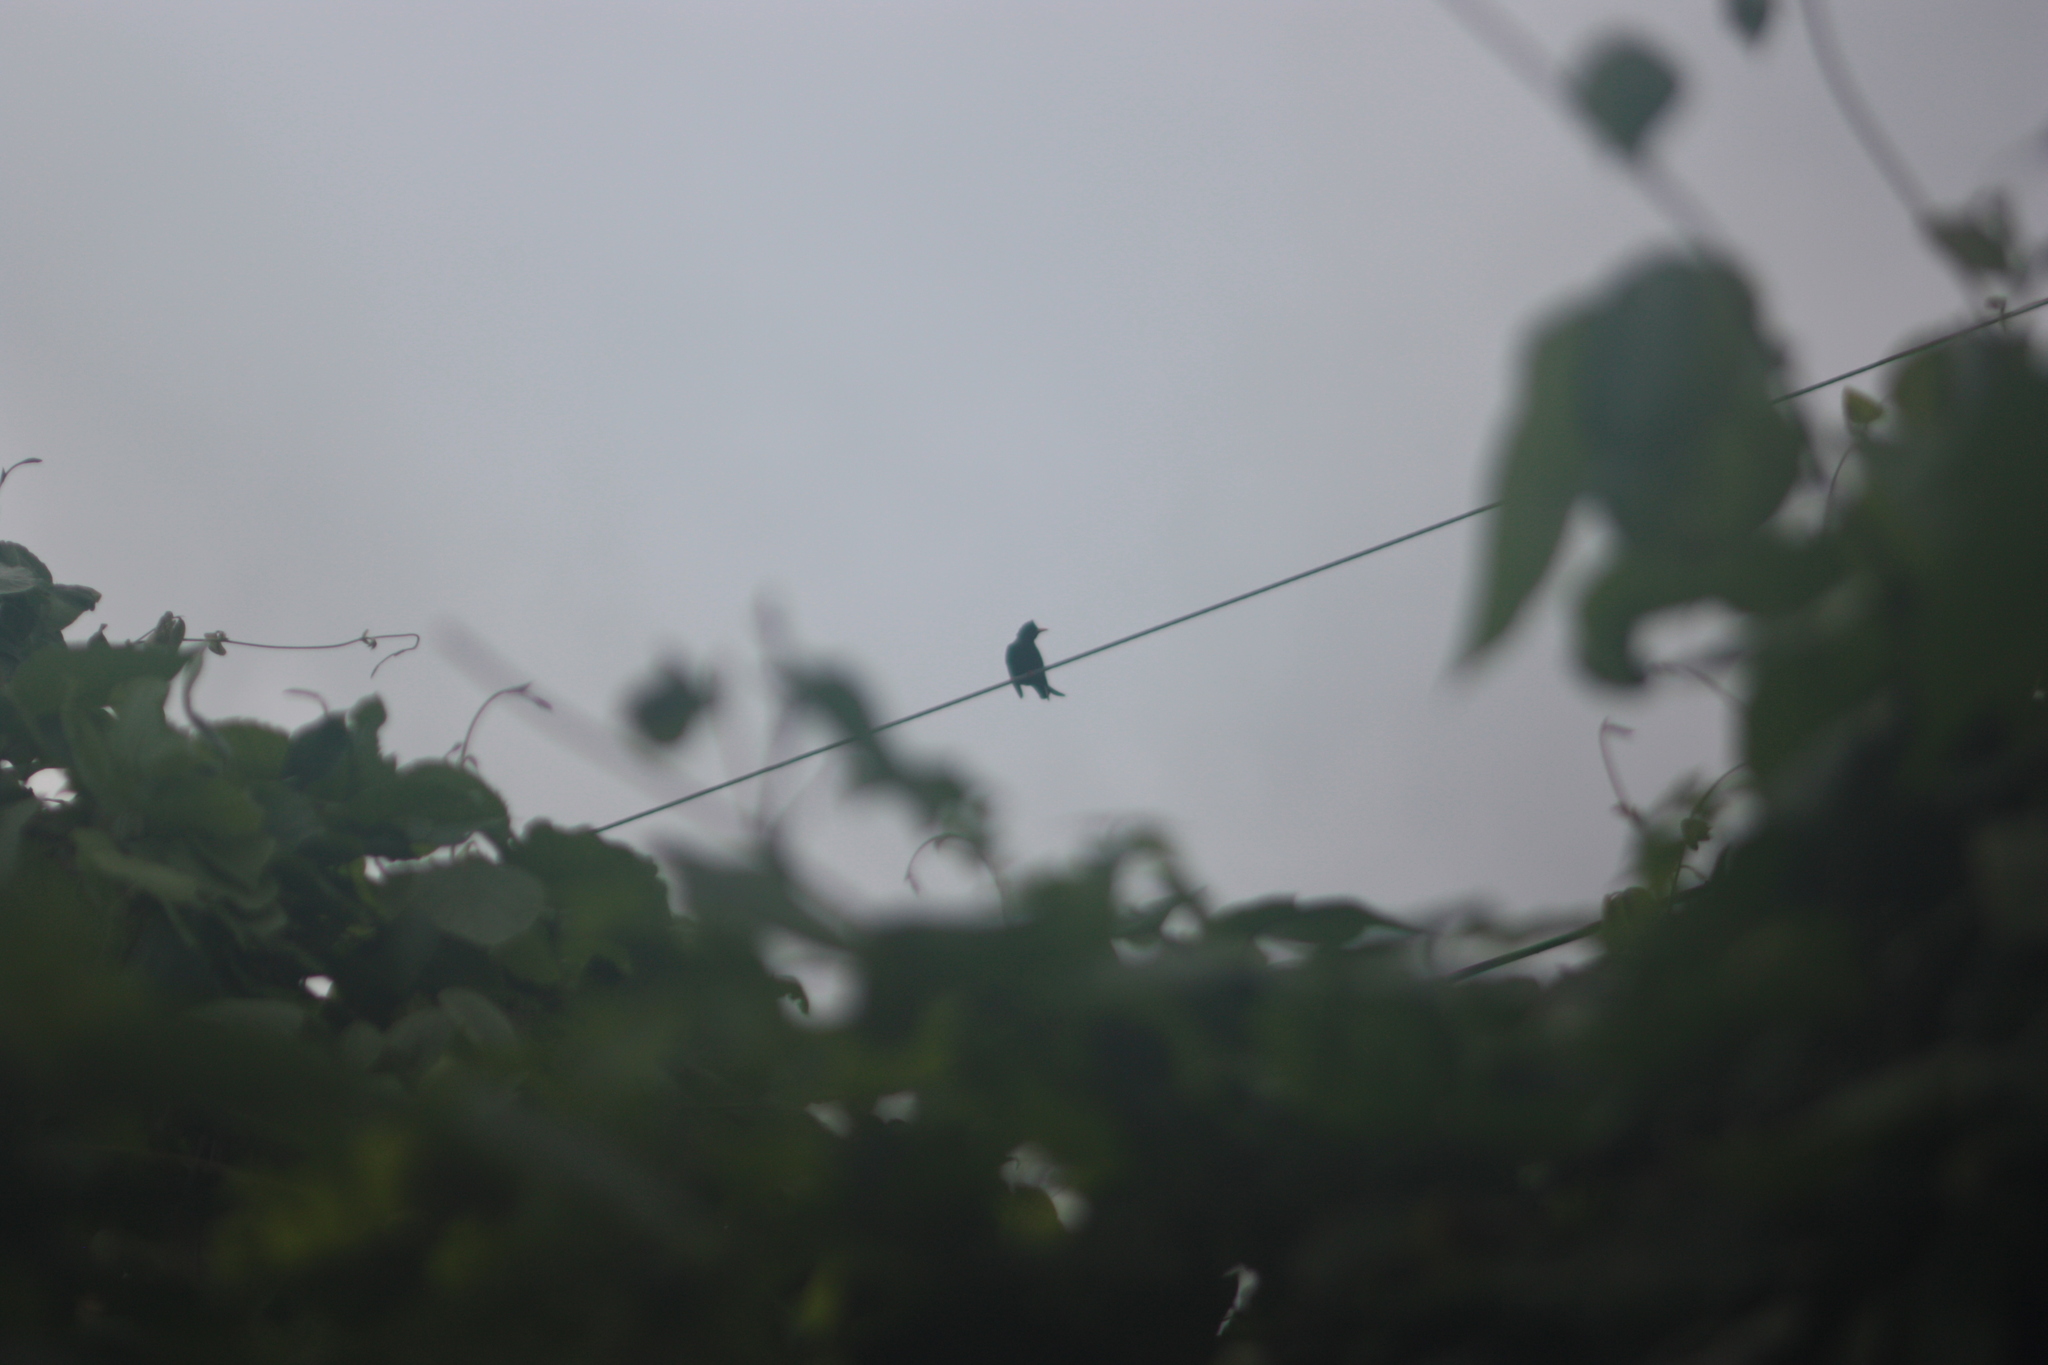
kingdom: Animalia
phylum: Chordata
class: Aves
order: Passeriformes
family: Pycnonotidae
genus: Hypsipetes
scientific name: Hypsipetes leucocephalus
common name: Black bulbul
